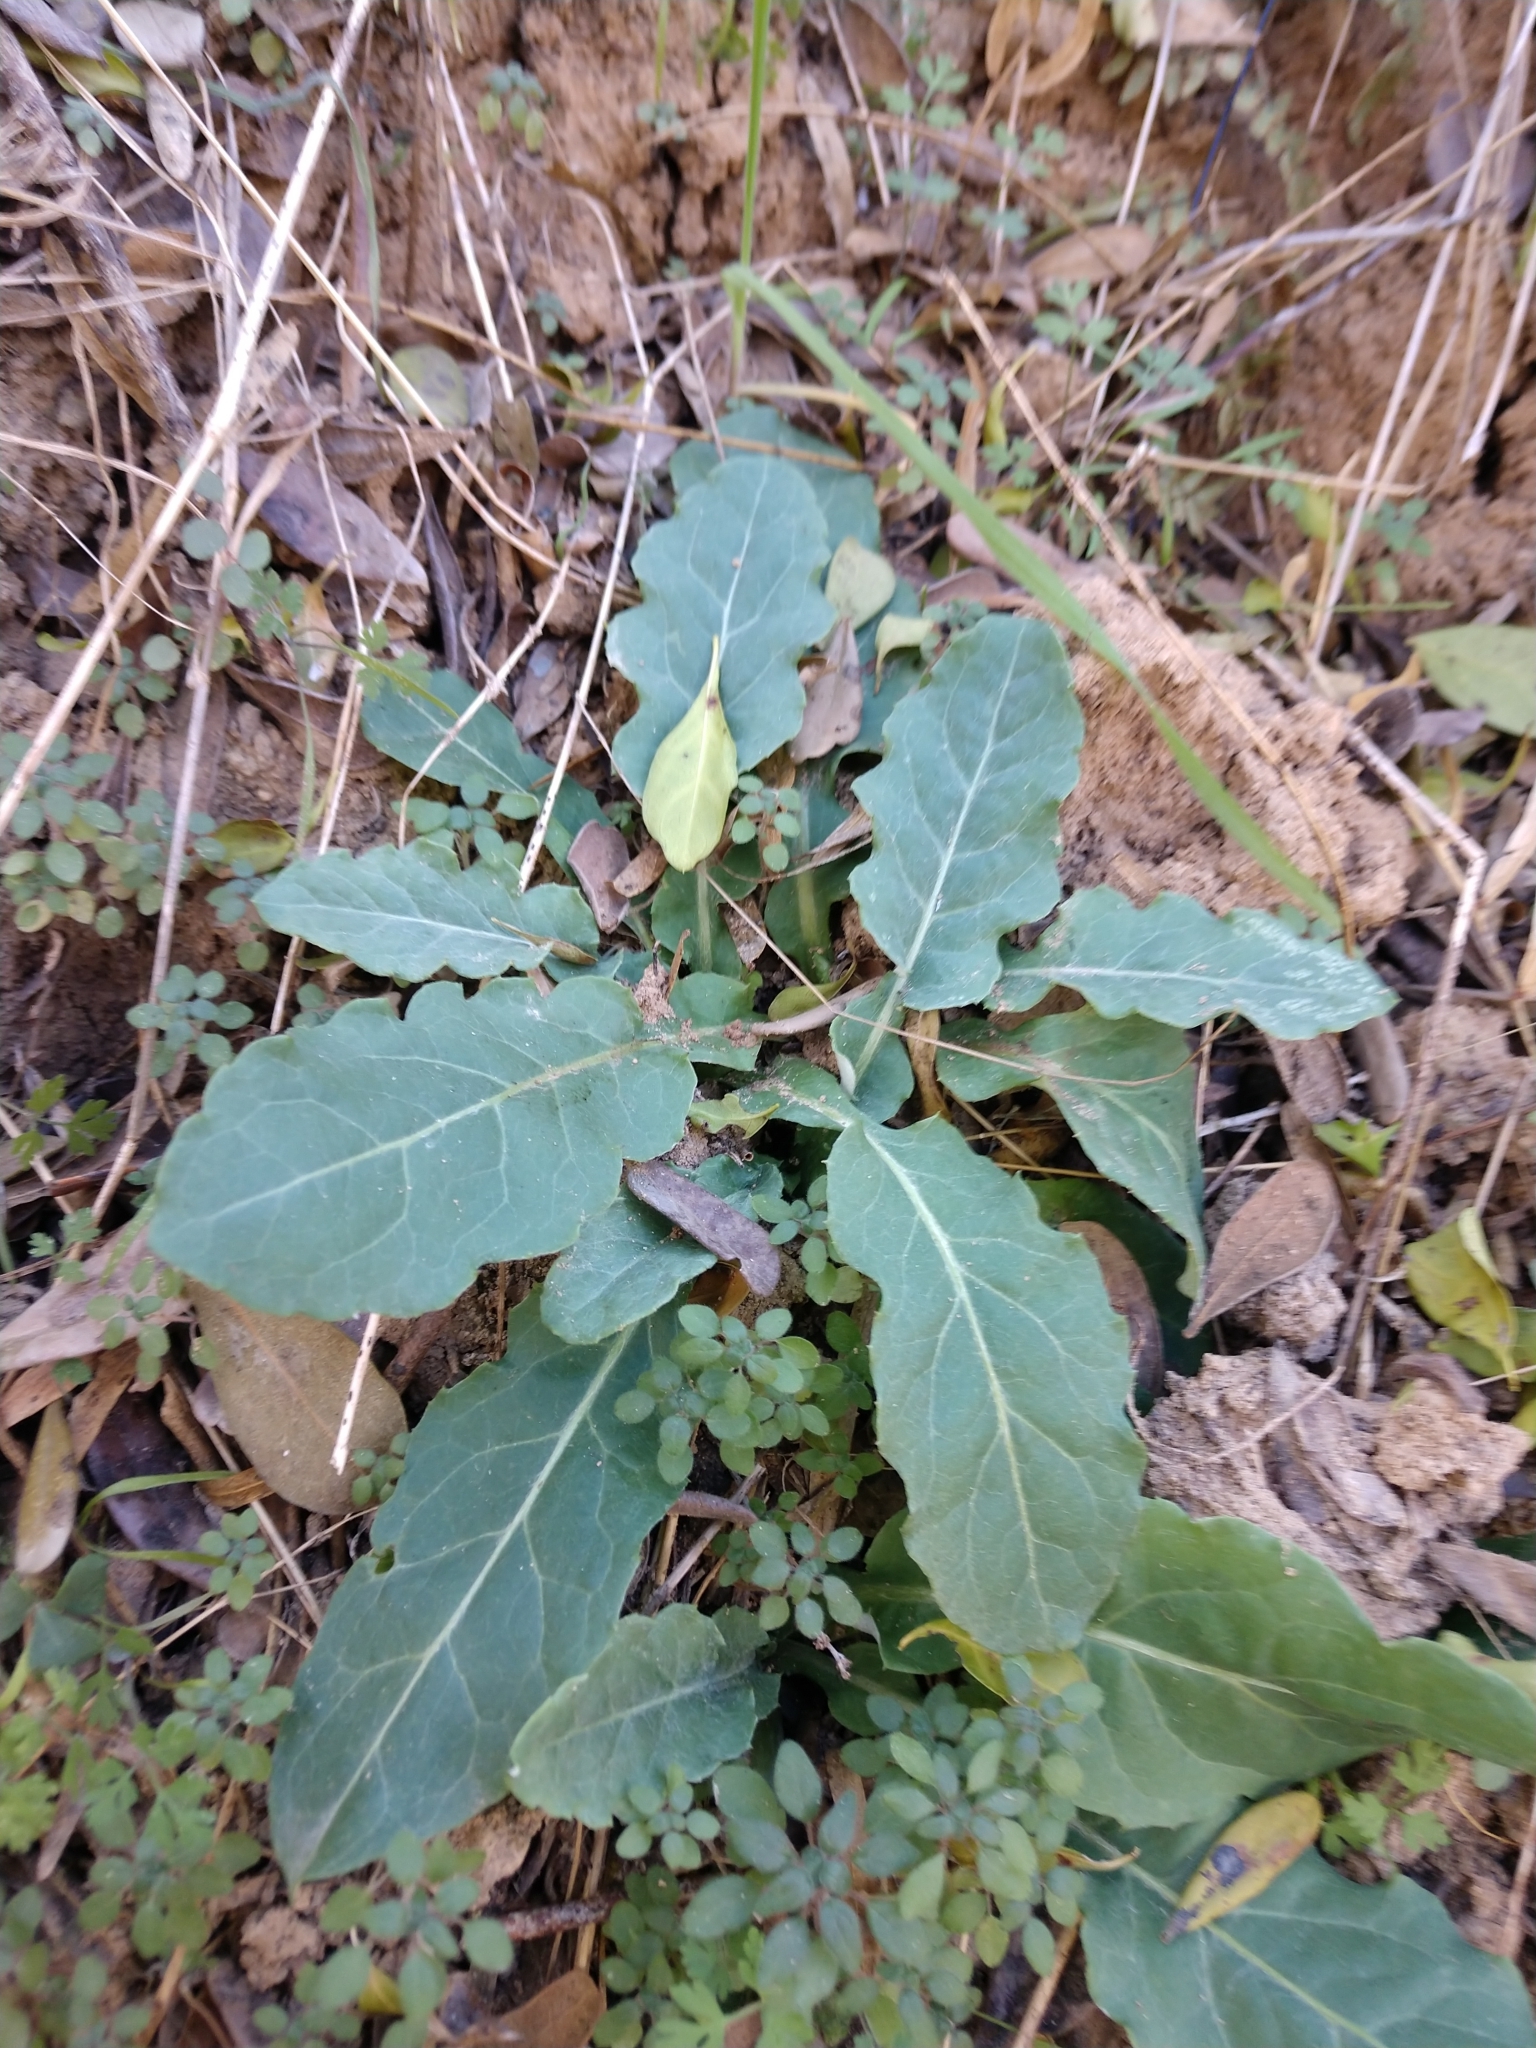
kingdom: Plantae
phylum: Tracheophyta
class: Magnoliopsida
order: Asterales
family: Asteraceae
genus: Chaptalia
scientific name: Chaptalia texana
